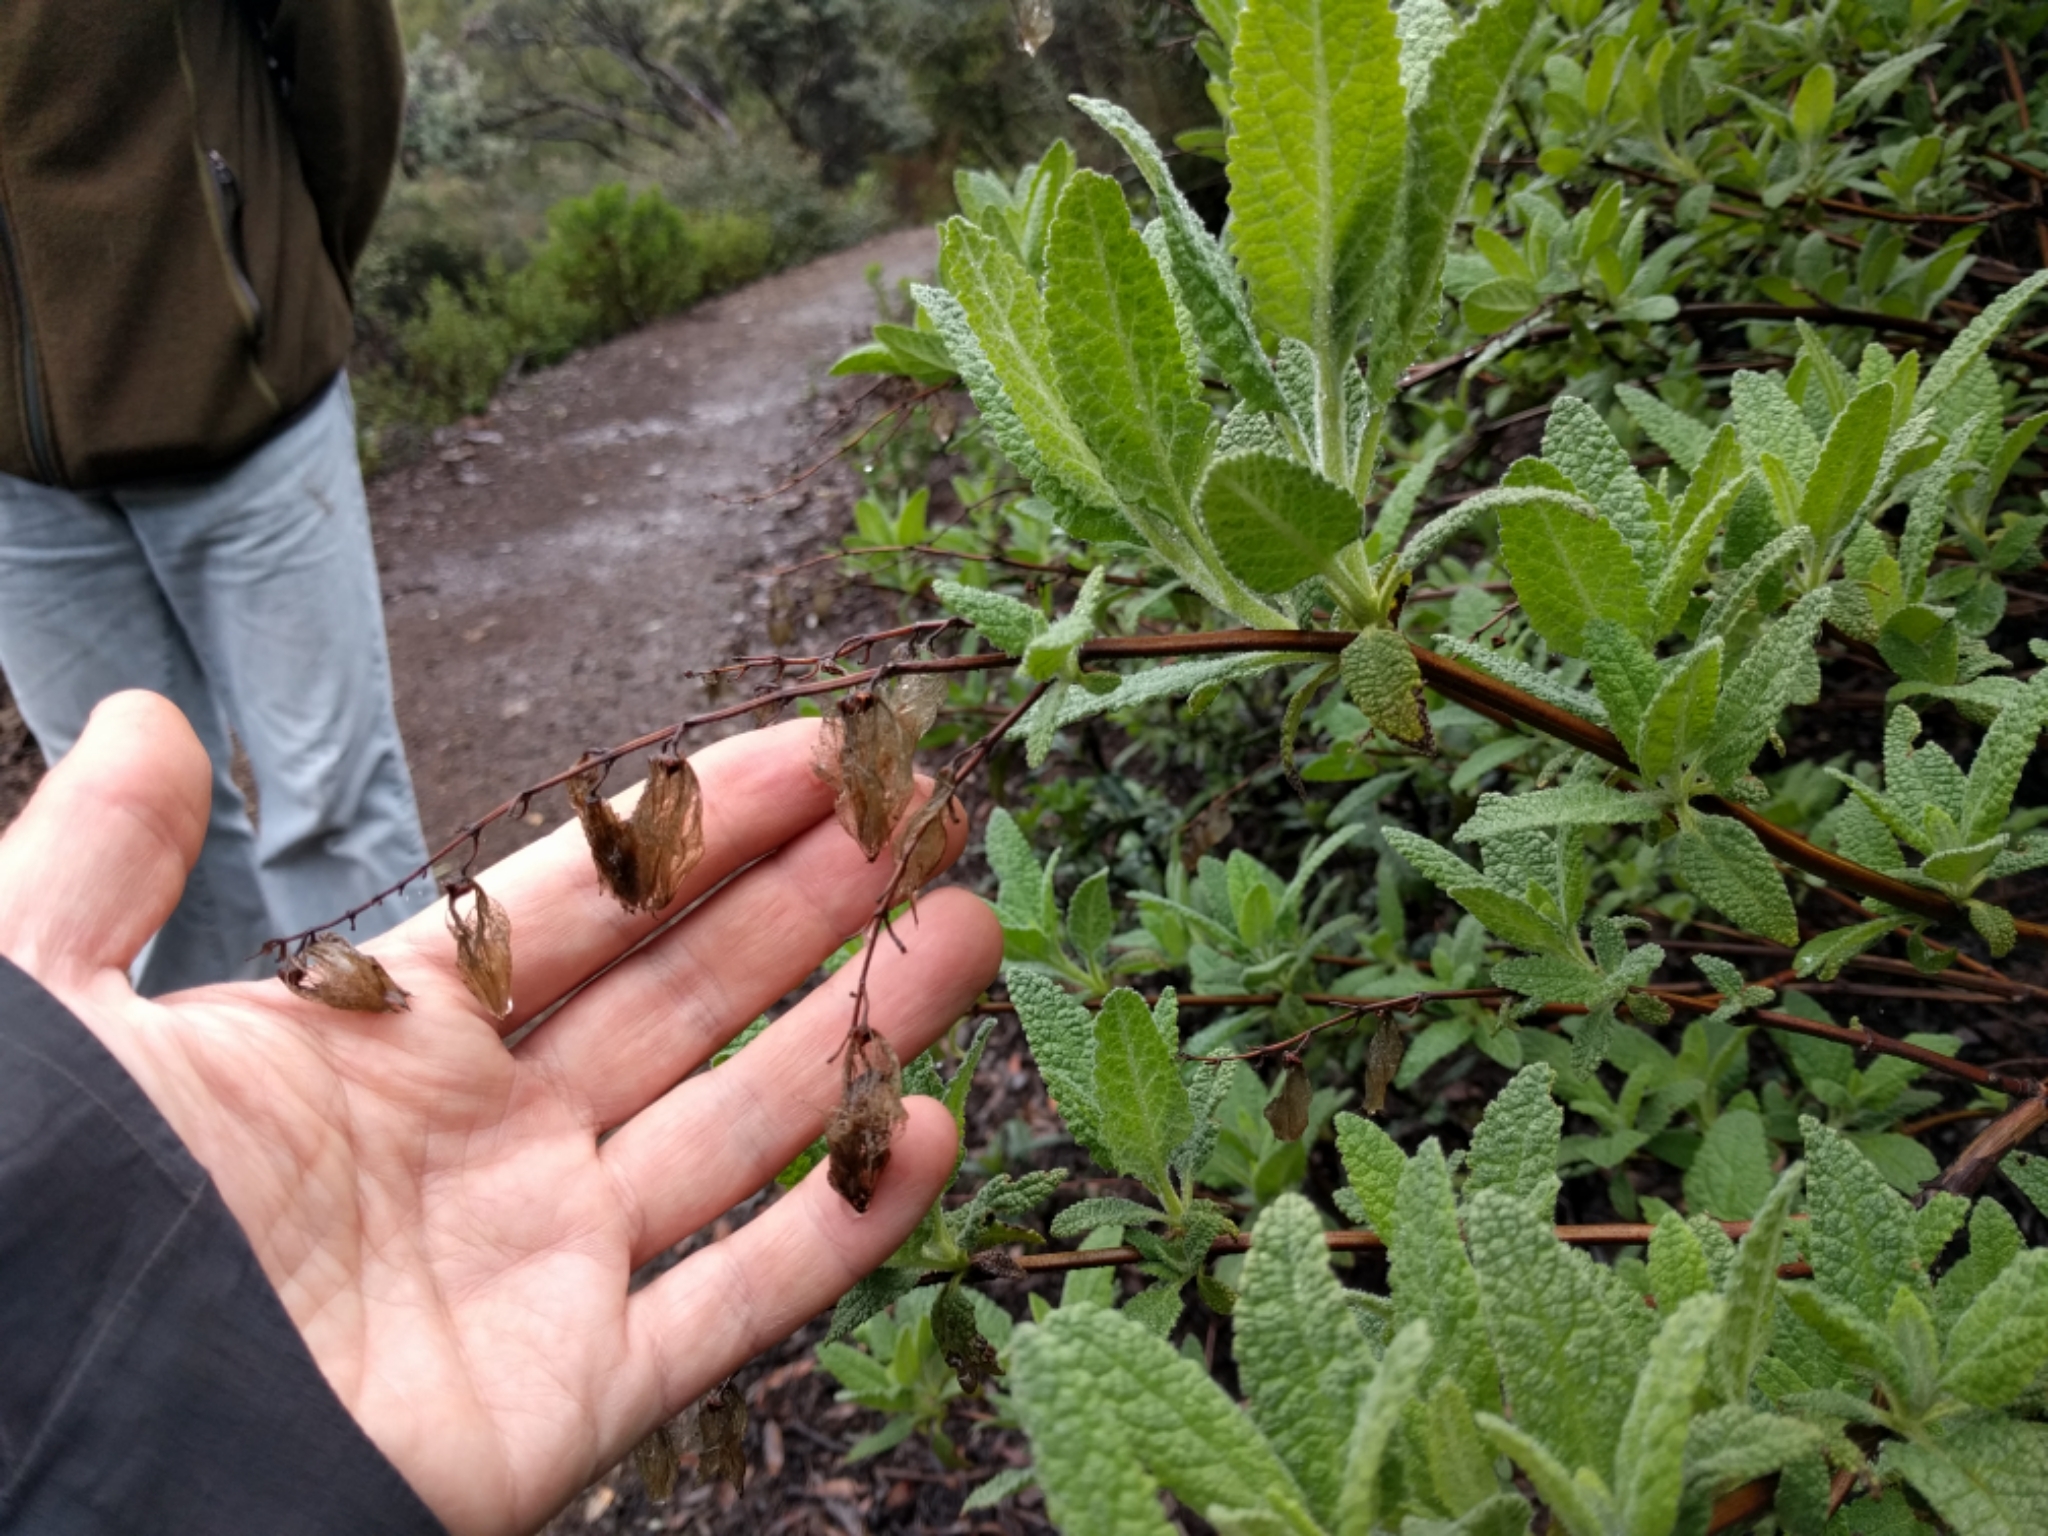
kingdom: Plantae
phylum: Tracheophyta
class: Magnoliopsida
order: Lamiales
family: Lamiaceae
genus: Lepechinia
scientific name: Lepechinia calycina
